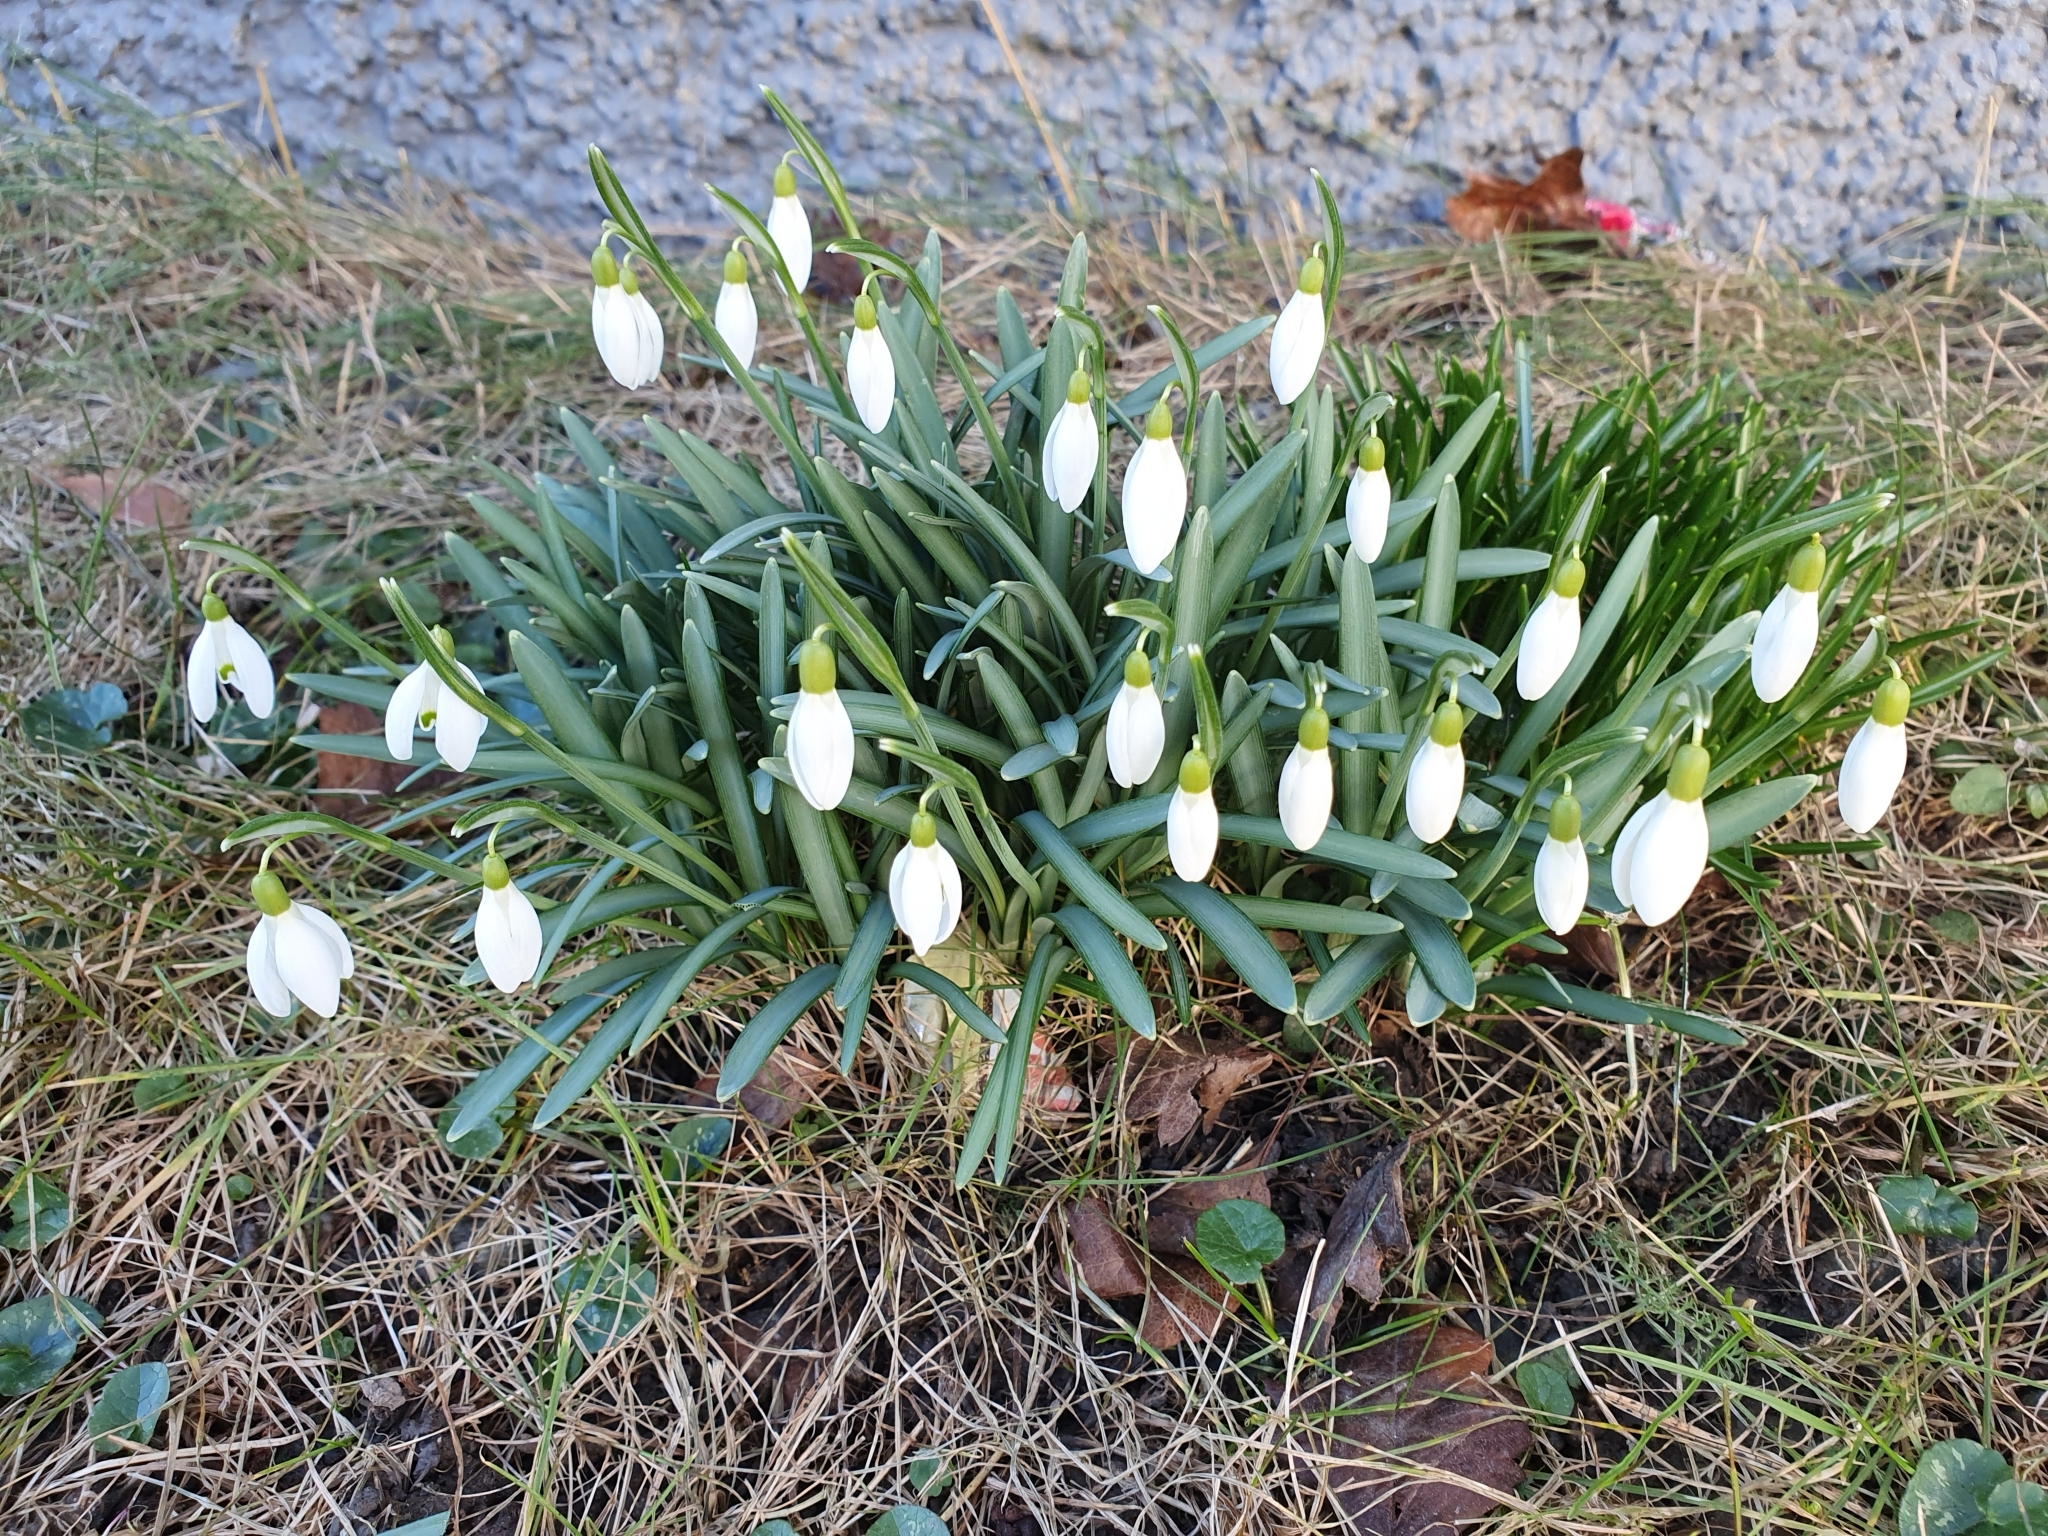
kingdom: Plantae
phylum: Tracheophyta
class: Liliopsida
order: Asparagales
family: Amaryllidaceae
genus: Galanthus
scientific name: Galanthus nivalis
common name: Snowdrop
